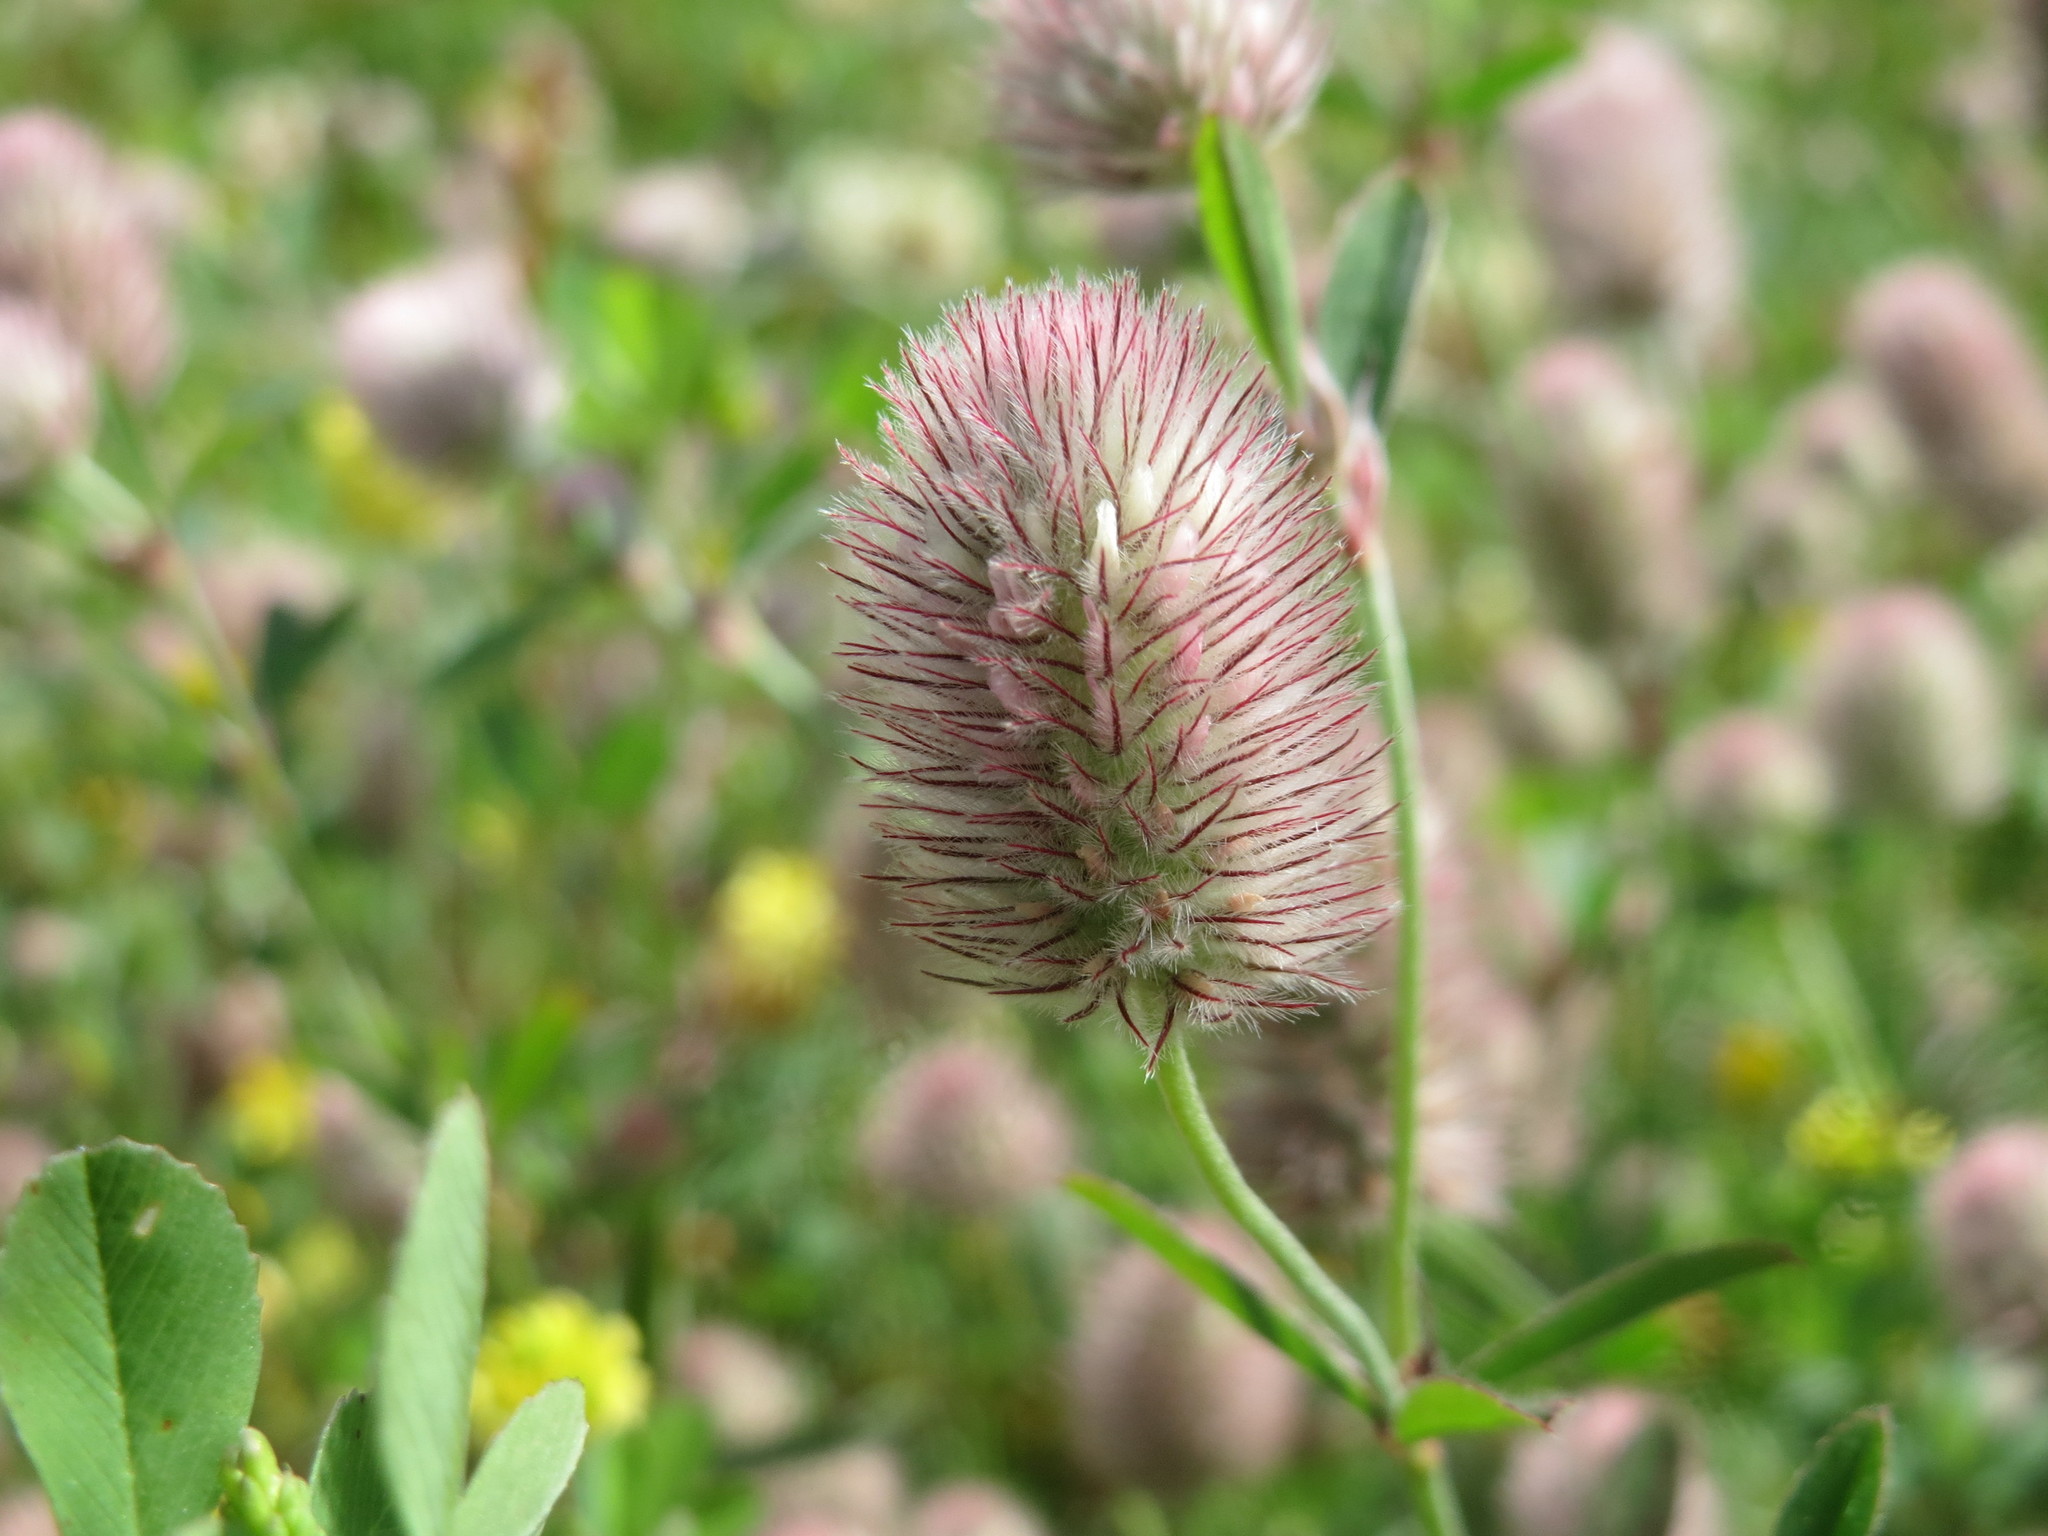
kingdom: Plantae
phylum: Tracheophyta
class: Magnoliopsida
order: Fabales
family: Fabaceae
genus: Trifolium
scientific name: Trifolium arvense
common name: Hare's-foot clover
